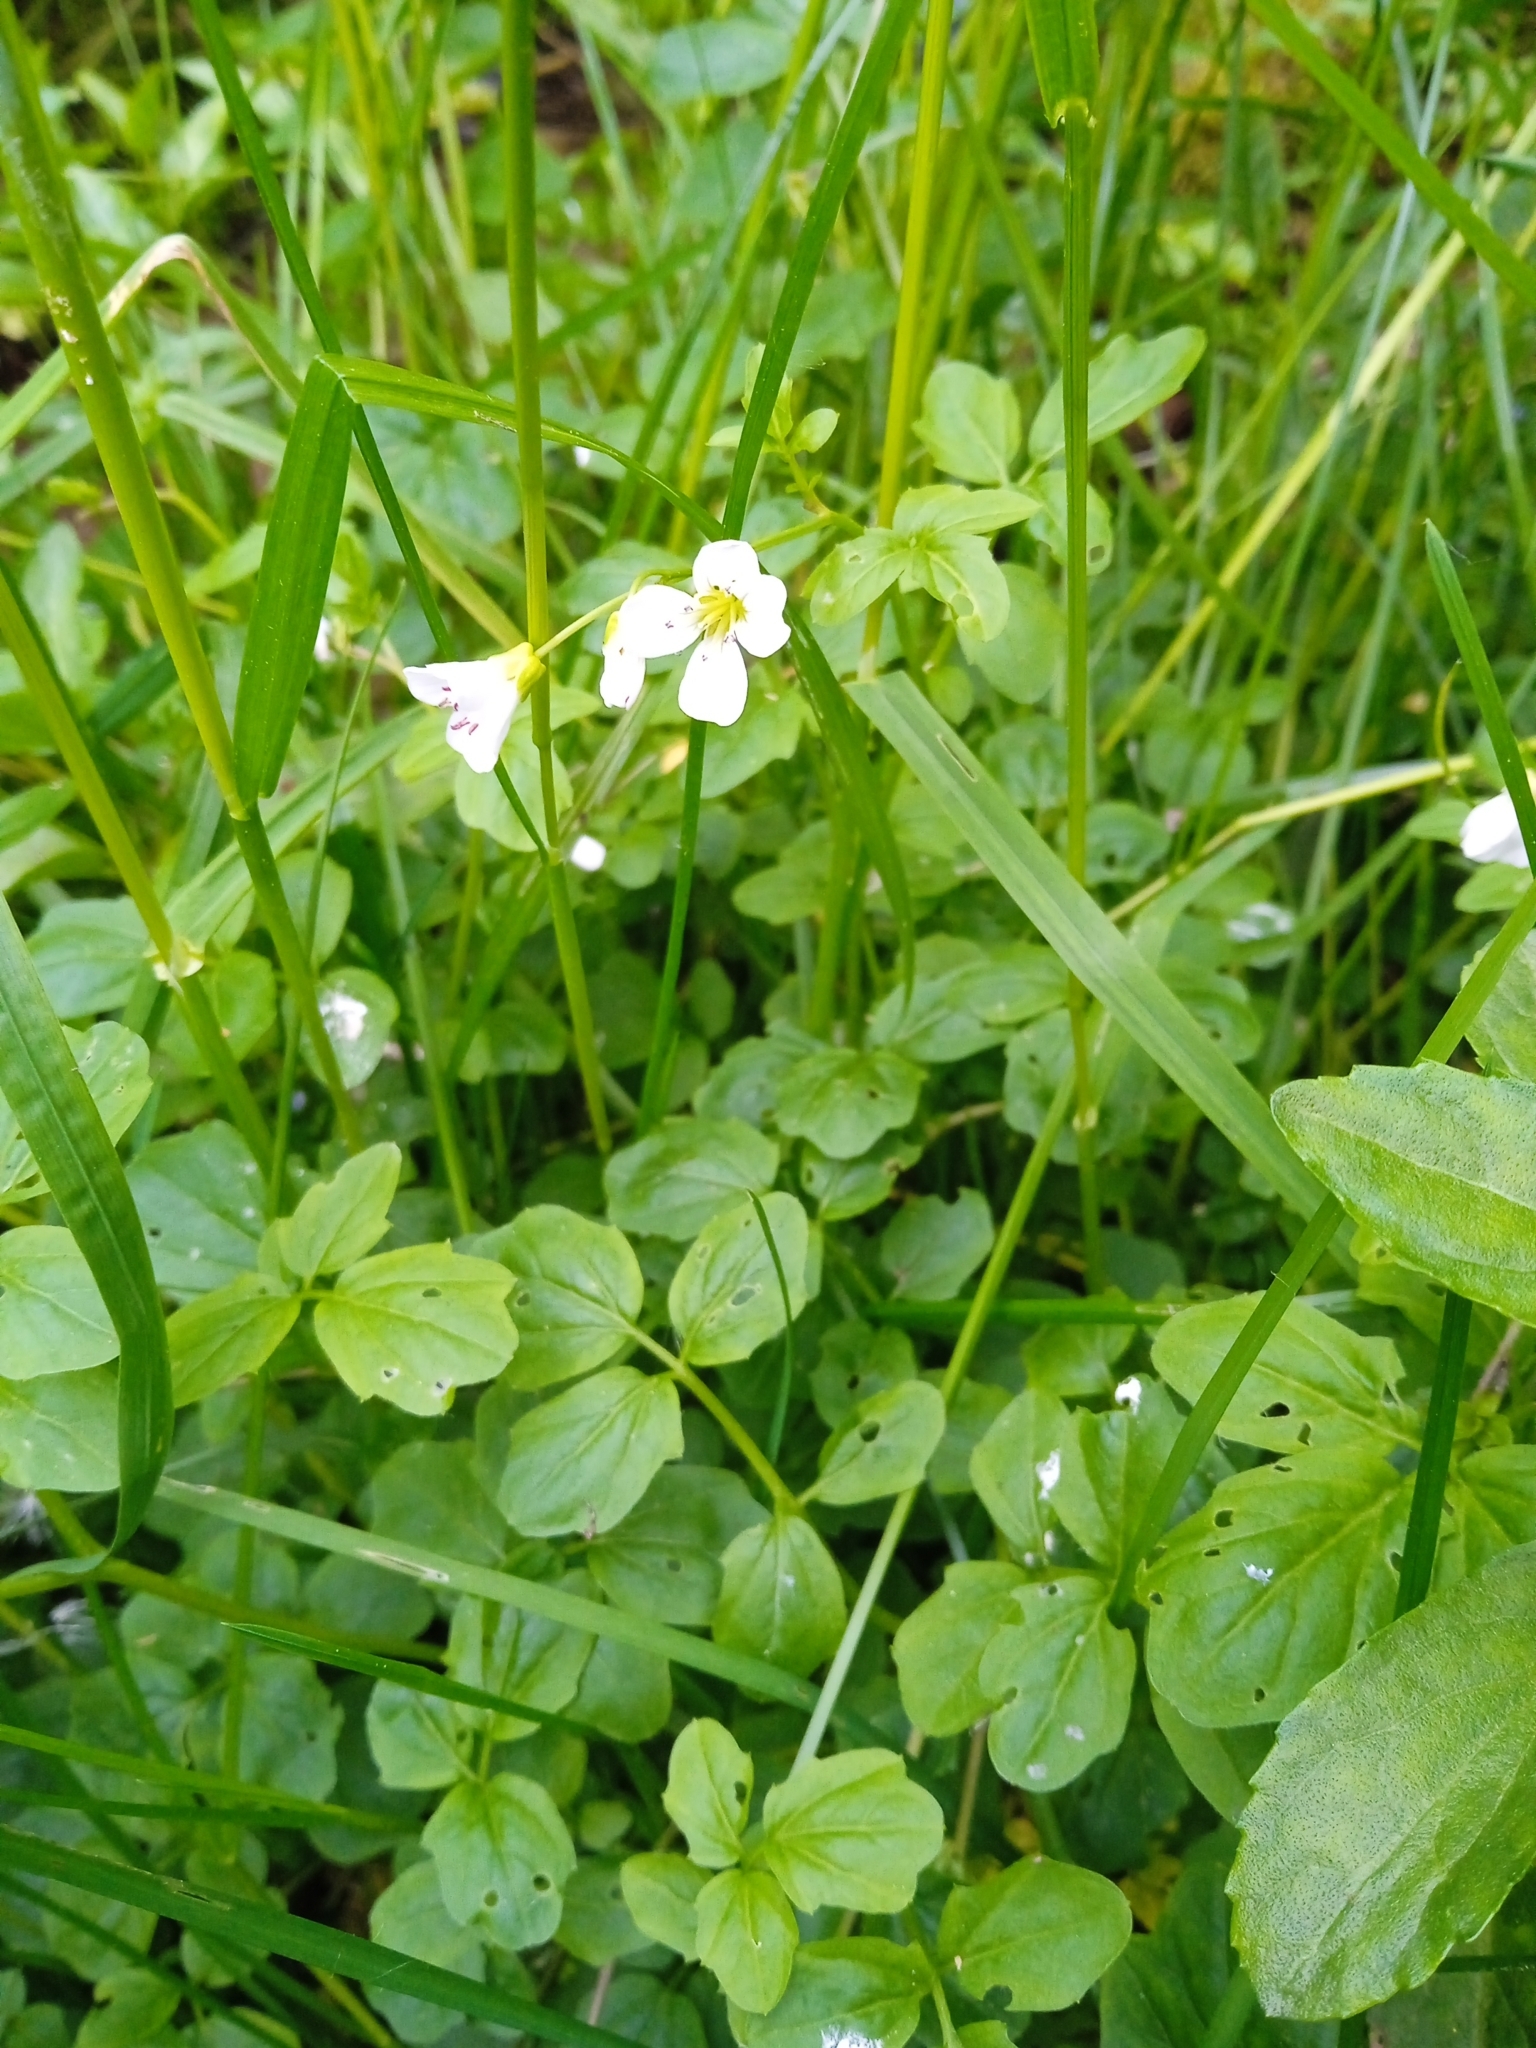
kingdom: Plantae
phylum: Tracheophyta
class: Magnoliopsida
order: Brassicales
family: Brassicaceae
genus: Cardamine
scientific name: Cardamine amara
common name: Large bitter-cress
